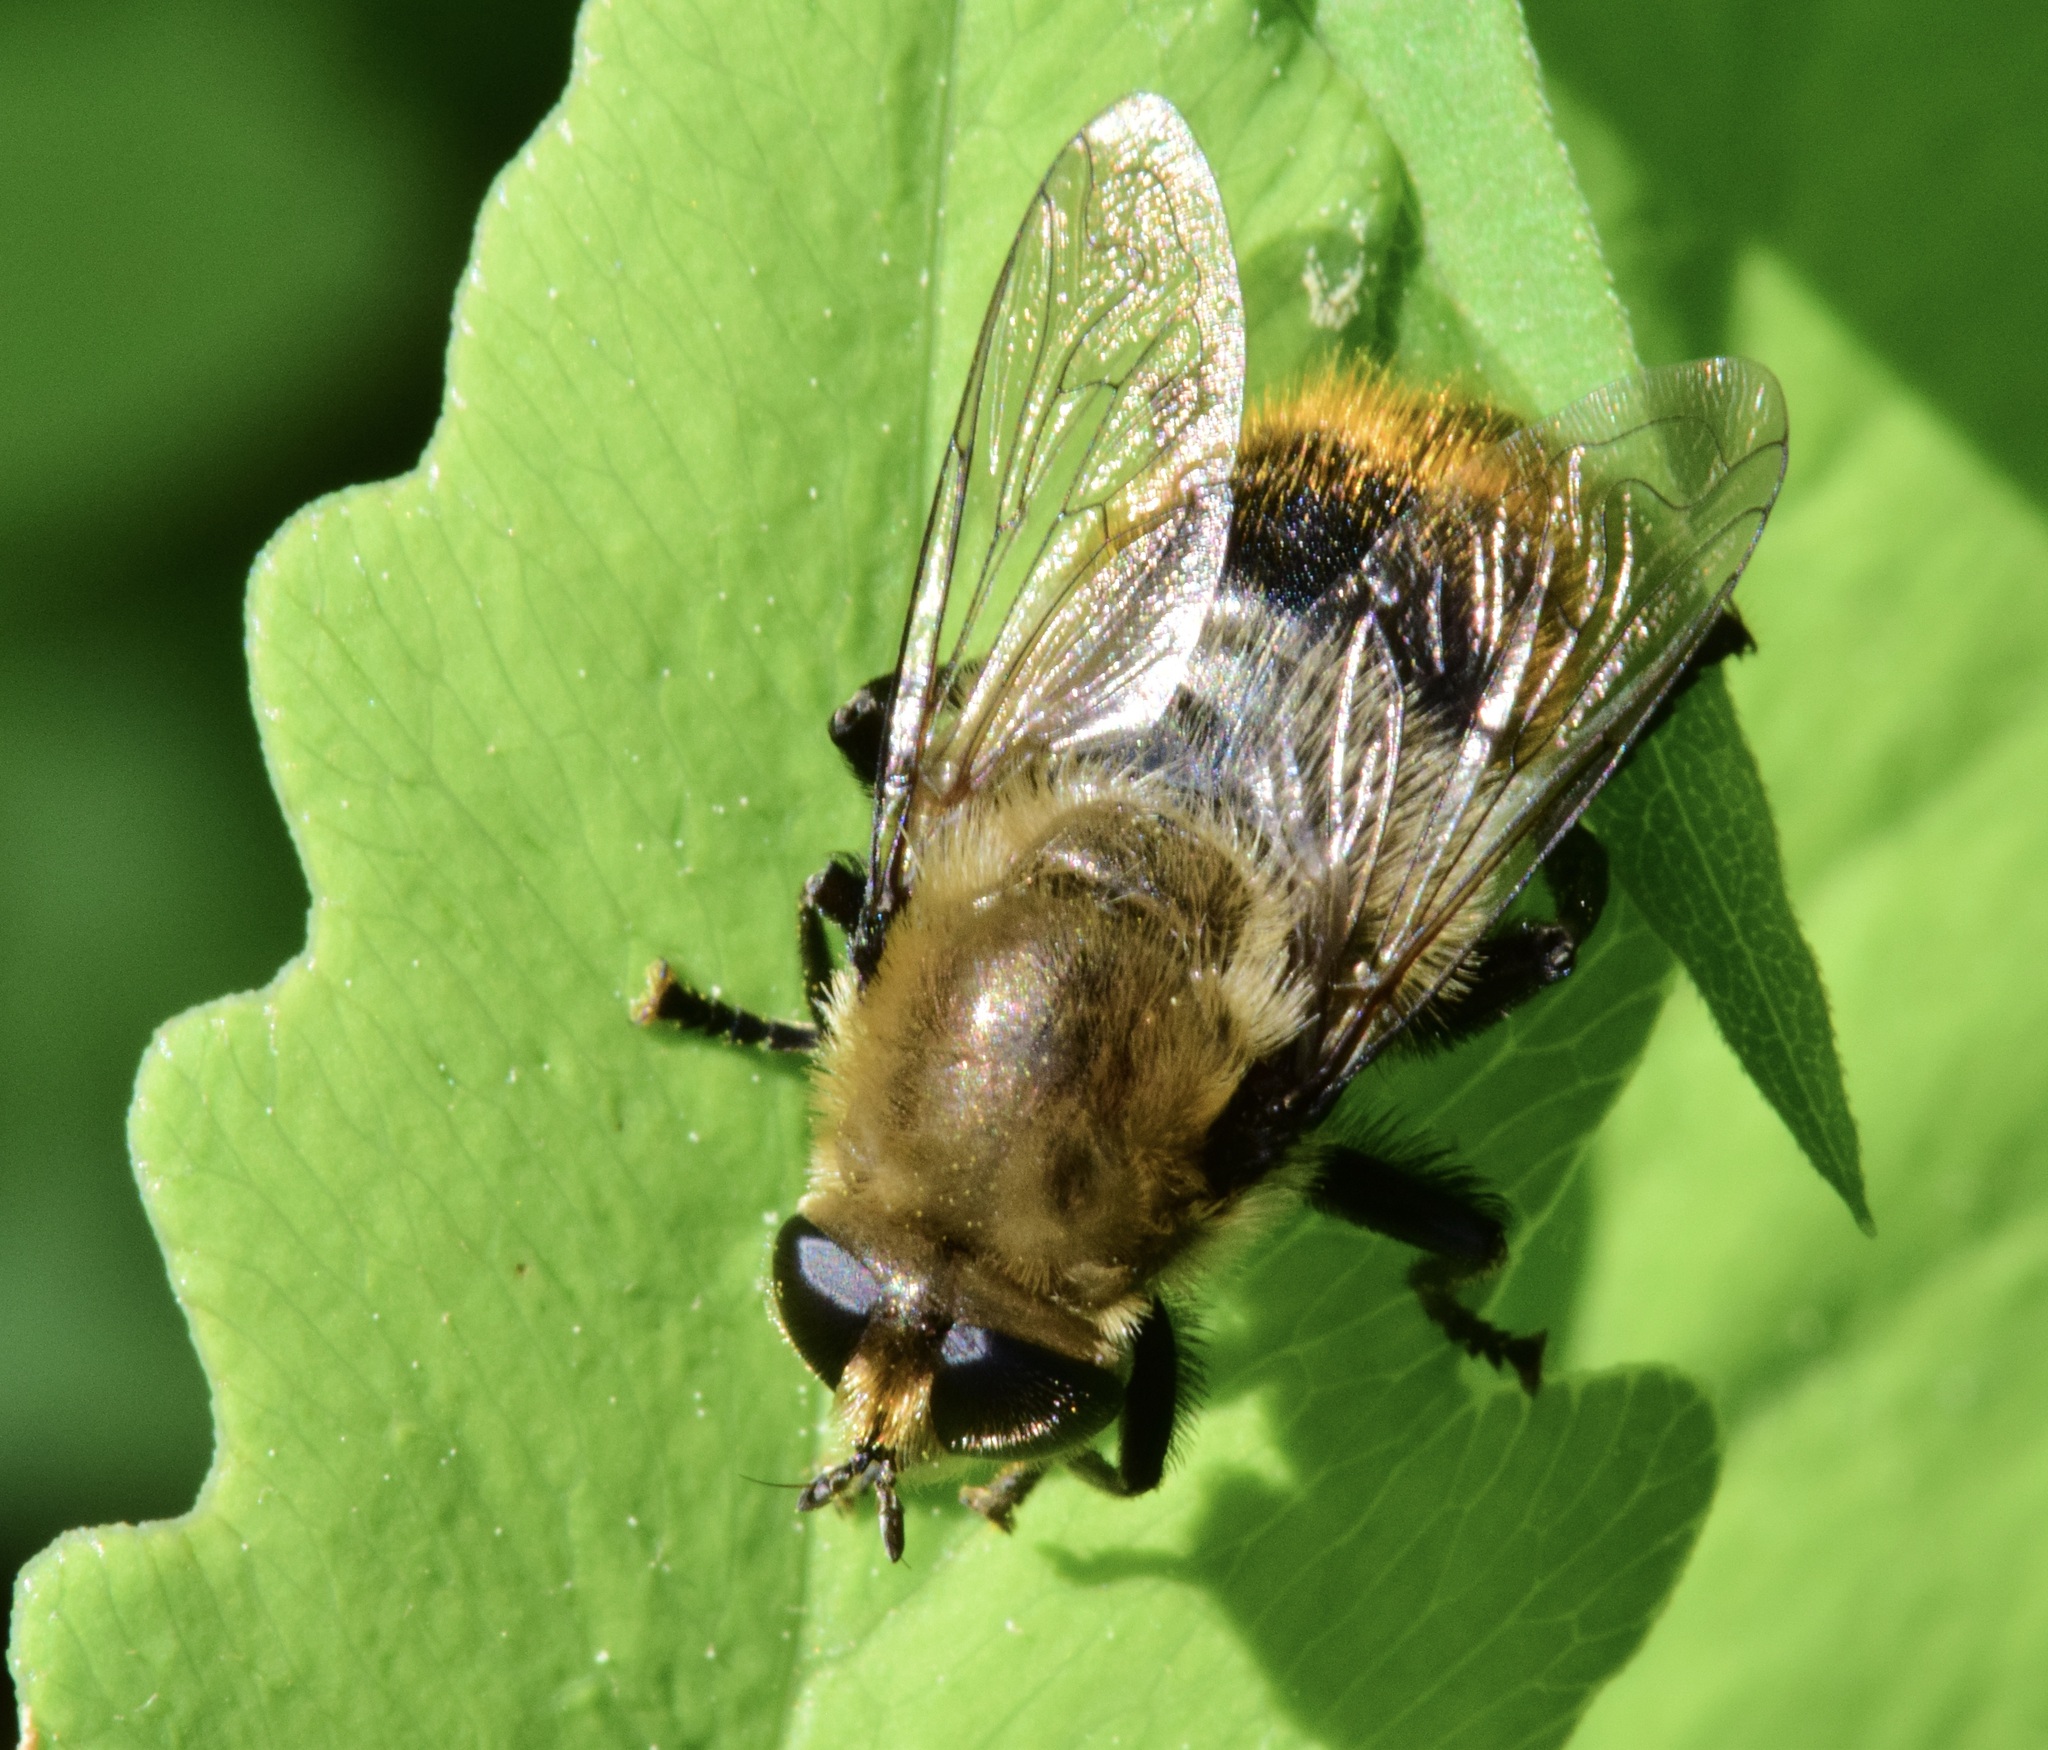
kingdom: Animalia
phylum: Arthropoda
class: Insecta
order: Diptera
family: Syrphidae
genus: Merodon
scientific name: Merodon equestris
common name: Greater bulb-fly
